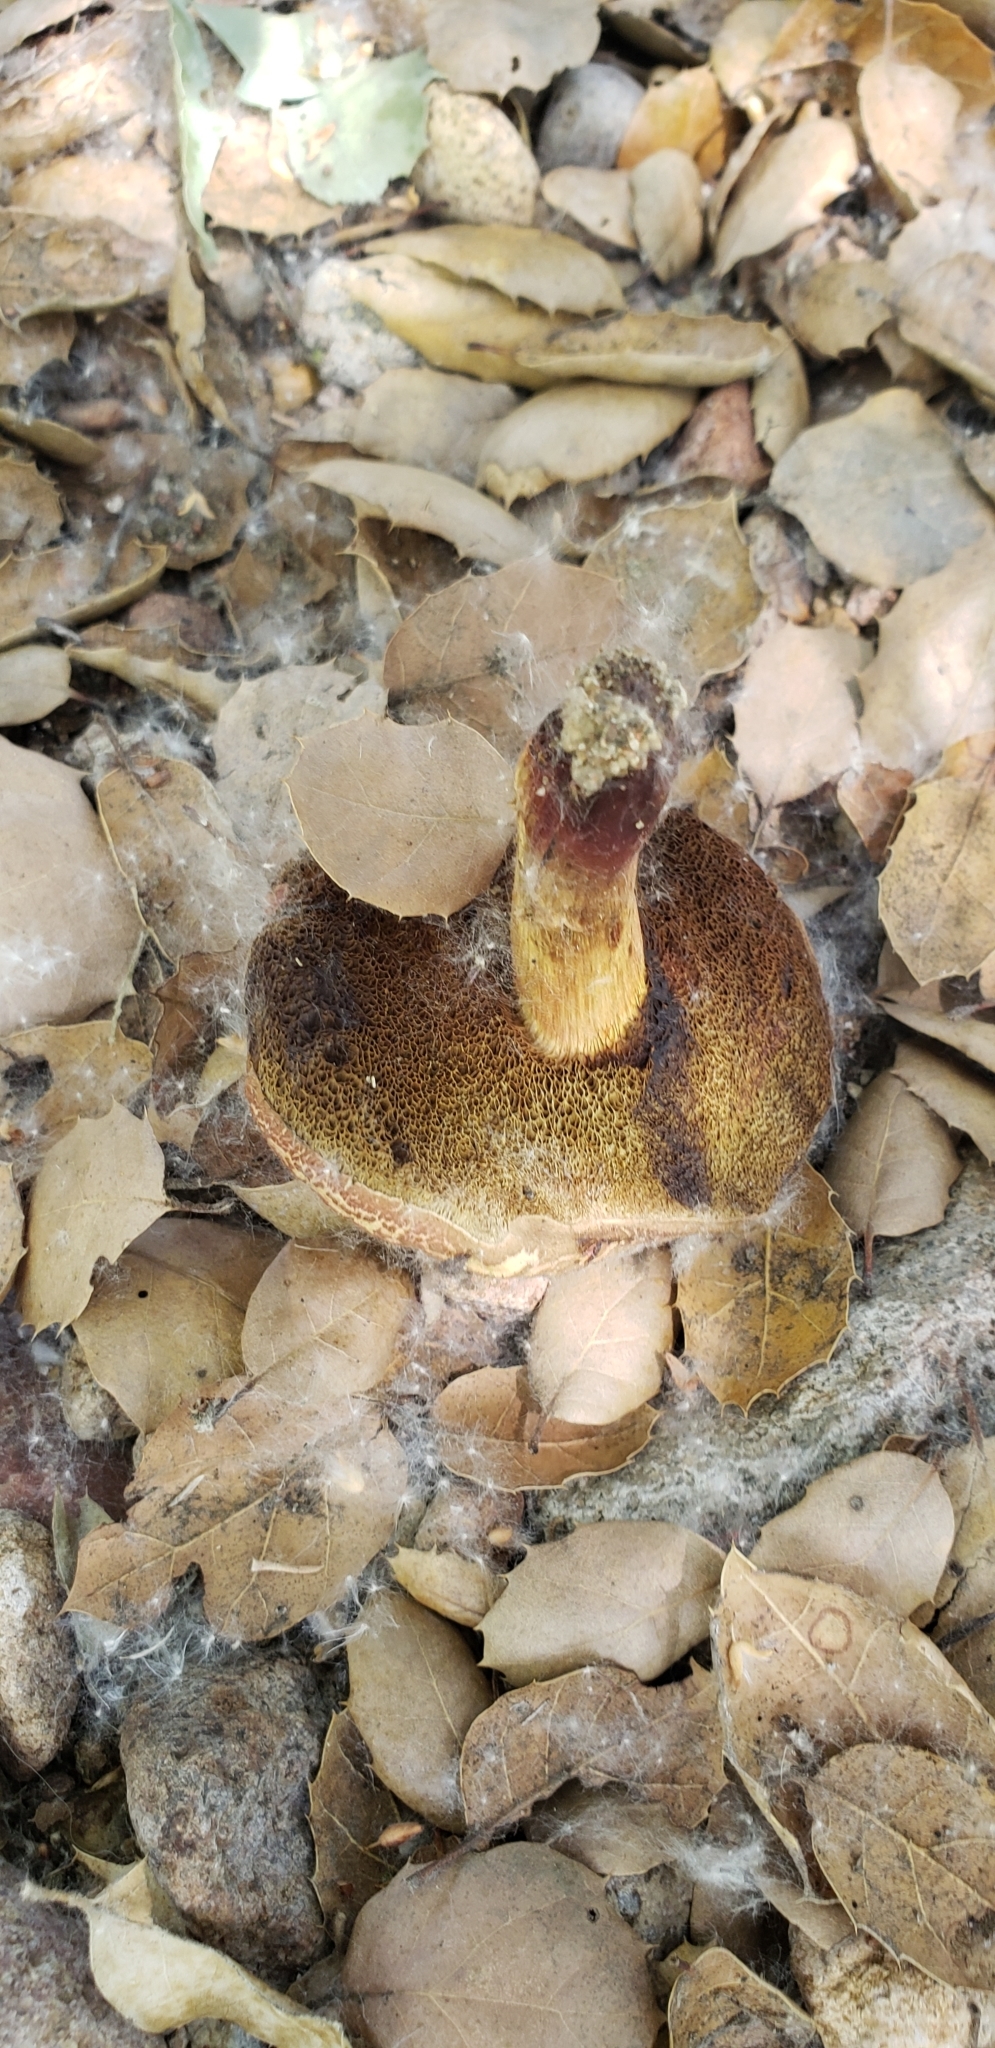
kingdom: Fungi
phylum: Basidiomycota
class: Agaricomycetes
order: Boletales
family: Boletaceae
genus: Xerocomellus
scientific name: Xerocomellus dryophilus
